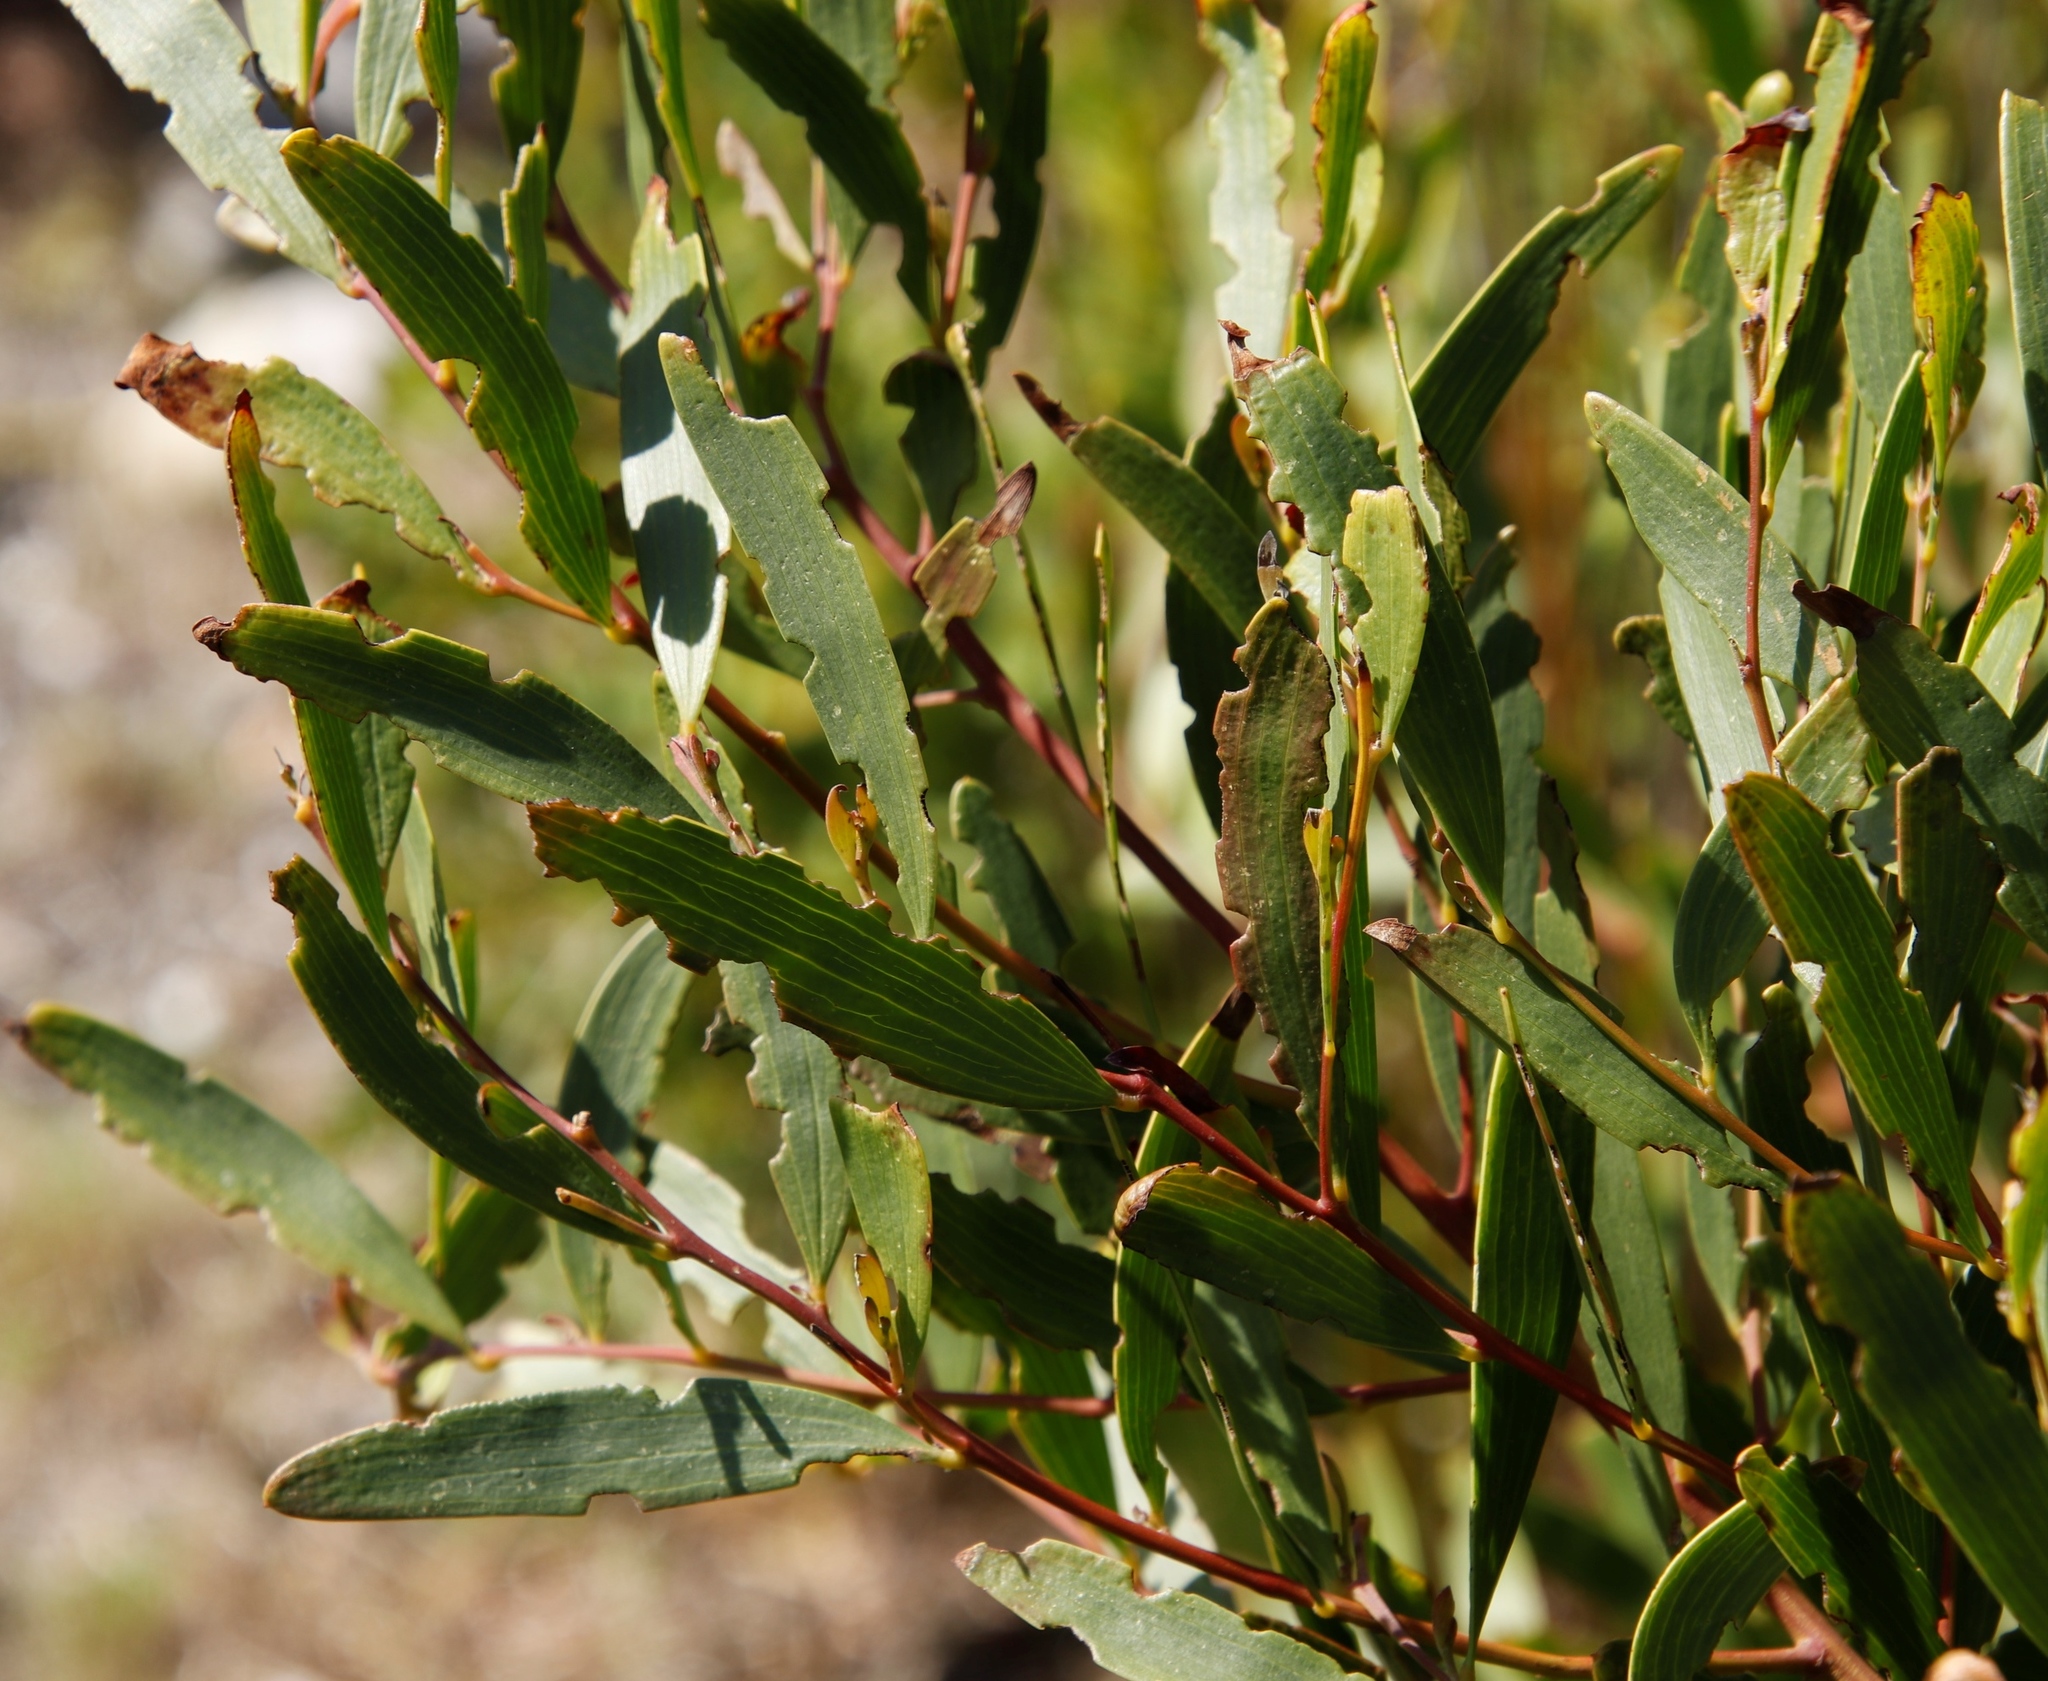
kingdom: Plantae
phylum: Tracheophyta
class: Magnoliopsida
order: Fabales
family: Fabaceae
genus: Acacia
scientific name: Acacia cyclops
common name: Coastal wattle
